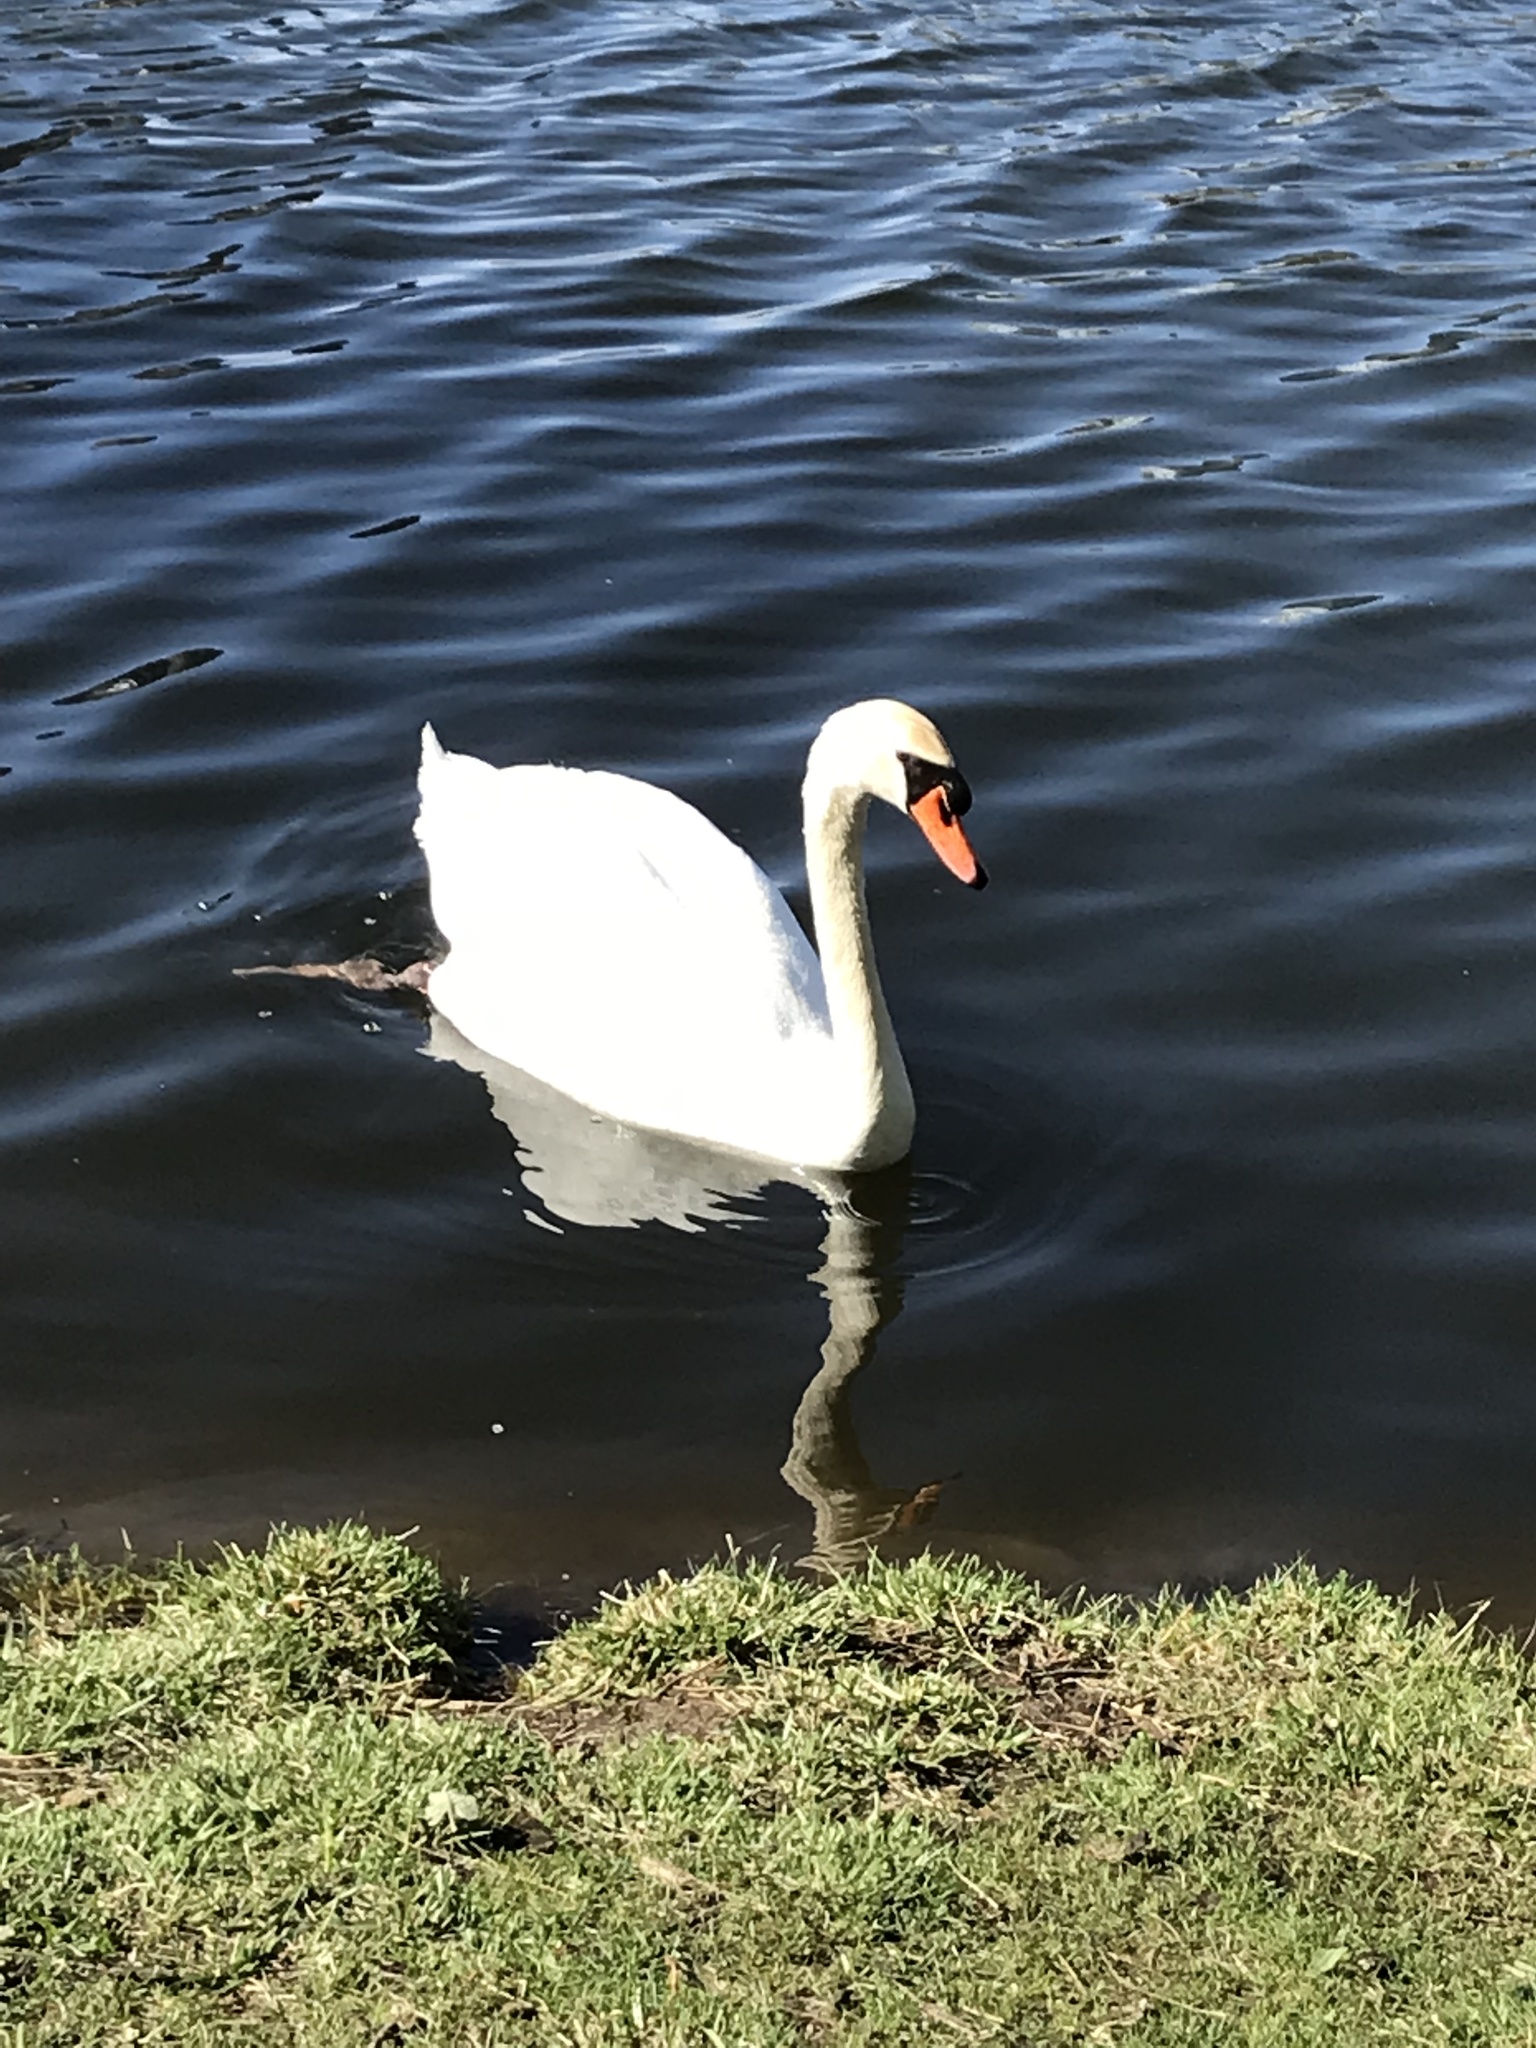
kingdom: Animalia
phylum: Chordata
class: Aves
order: Anseriformes
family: Anatidae
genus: Cygnus
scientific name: Cygnus olor
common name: Mute swan
